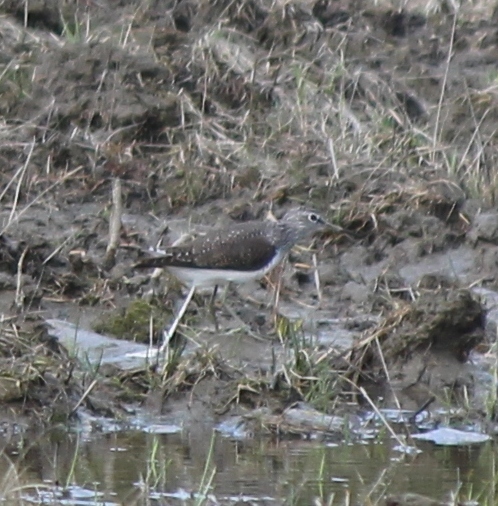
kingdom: Animalia
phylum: Chordata
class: Aves
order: Charadriiformes
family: Scolopacidae
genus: Tringa
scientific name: Tringa ochropus
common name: Green sandpiper
